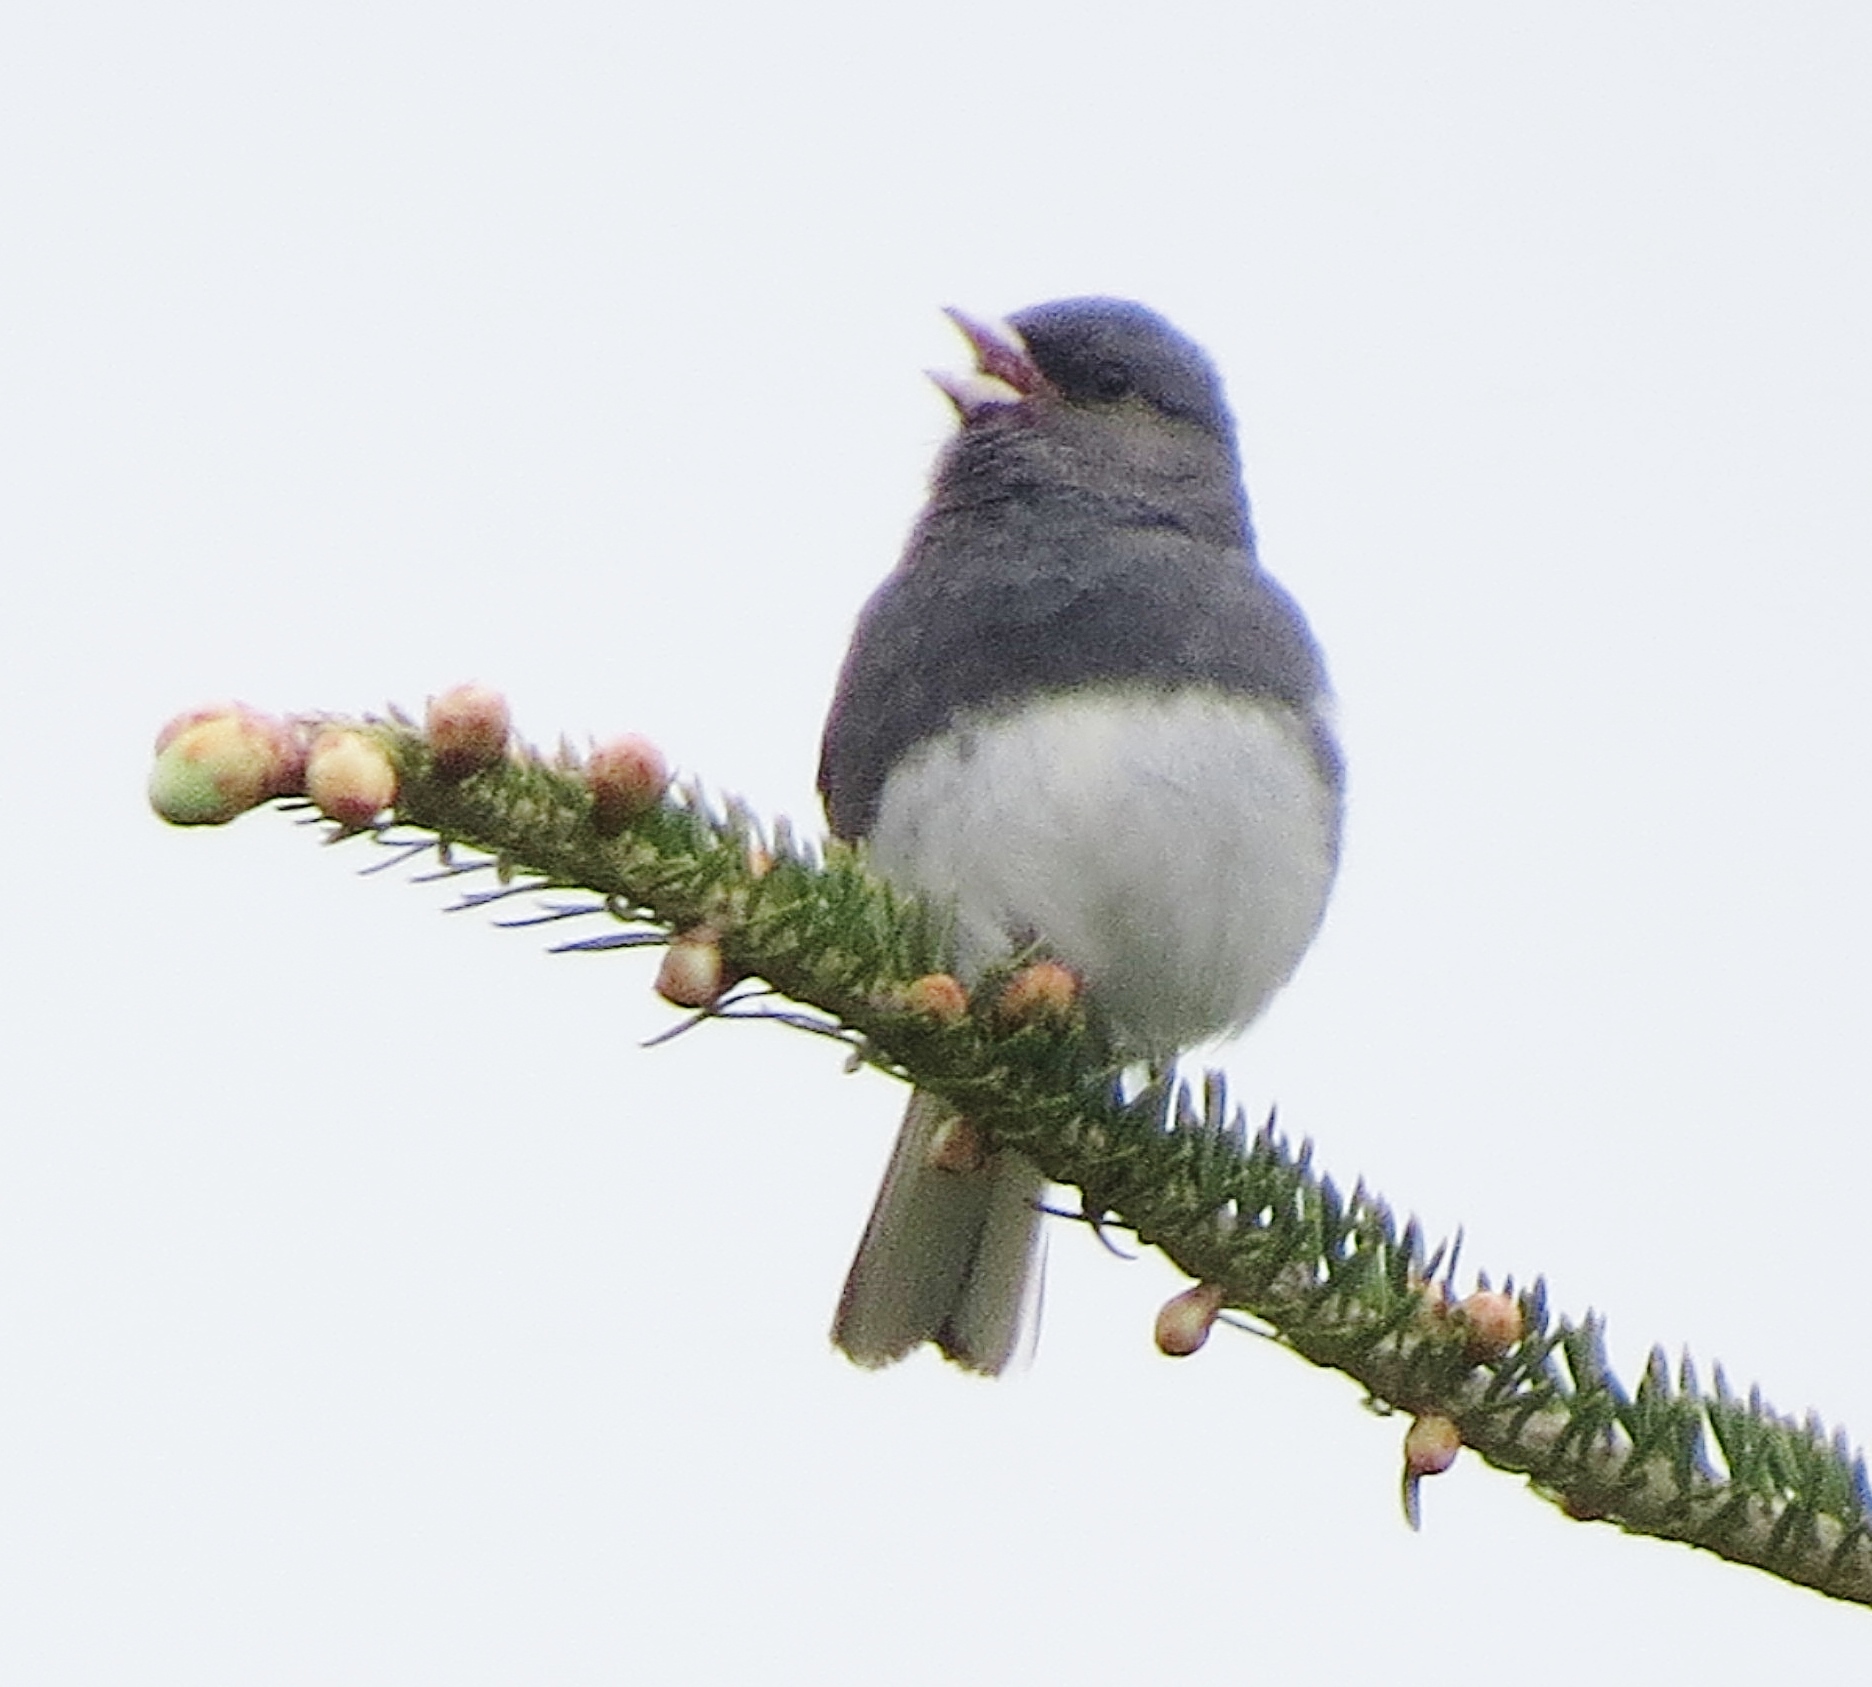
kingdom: Animalia
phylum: Chordata
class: Aves
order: Passeriformes
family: Passerellidae
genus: Junco
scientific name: Junco hyemalis
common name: Dark-eyed junco
